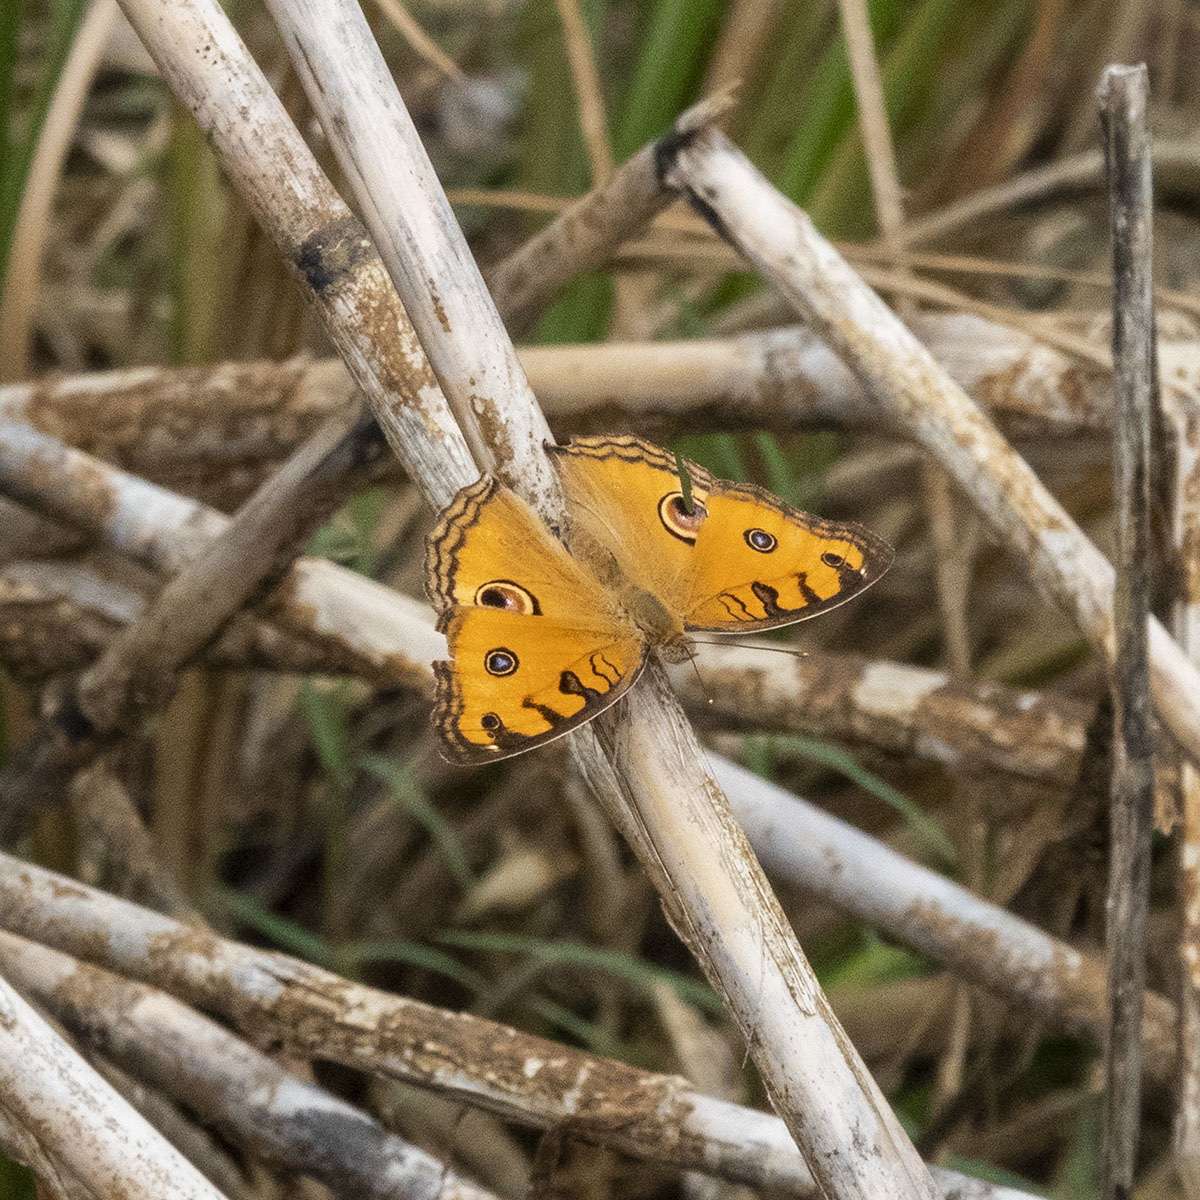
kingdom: Animalia
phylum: Arthropoda
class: Insecta
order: Lepidoptera
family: Nymphalidae
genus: Junonia
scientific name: Junonia almana
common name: Peacock pansy
